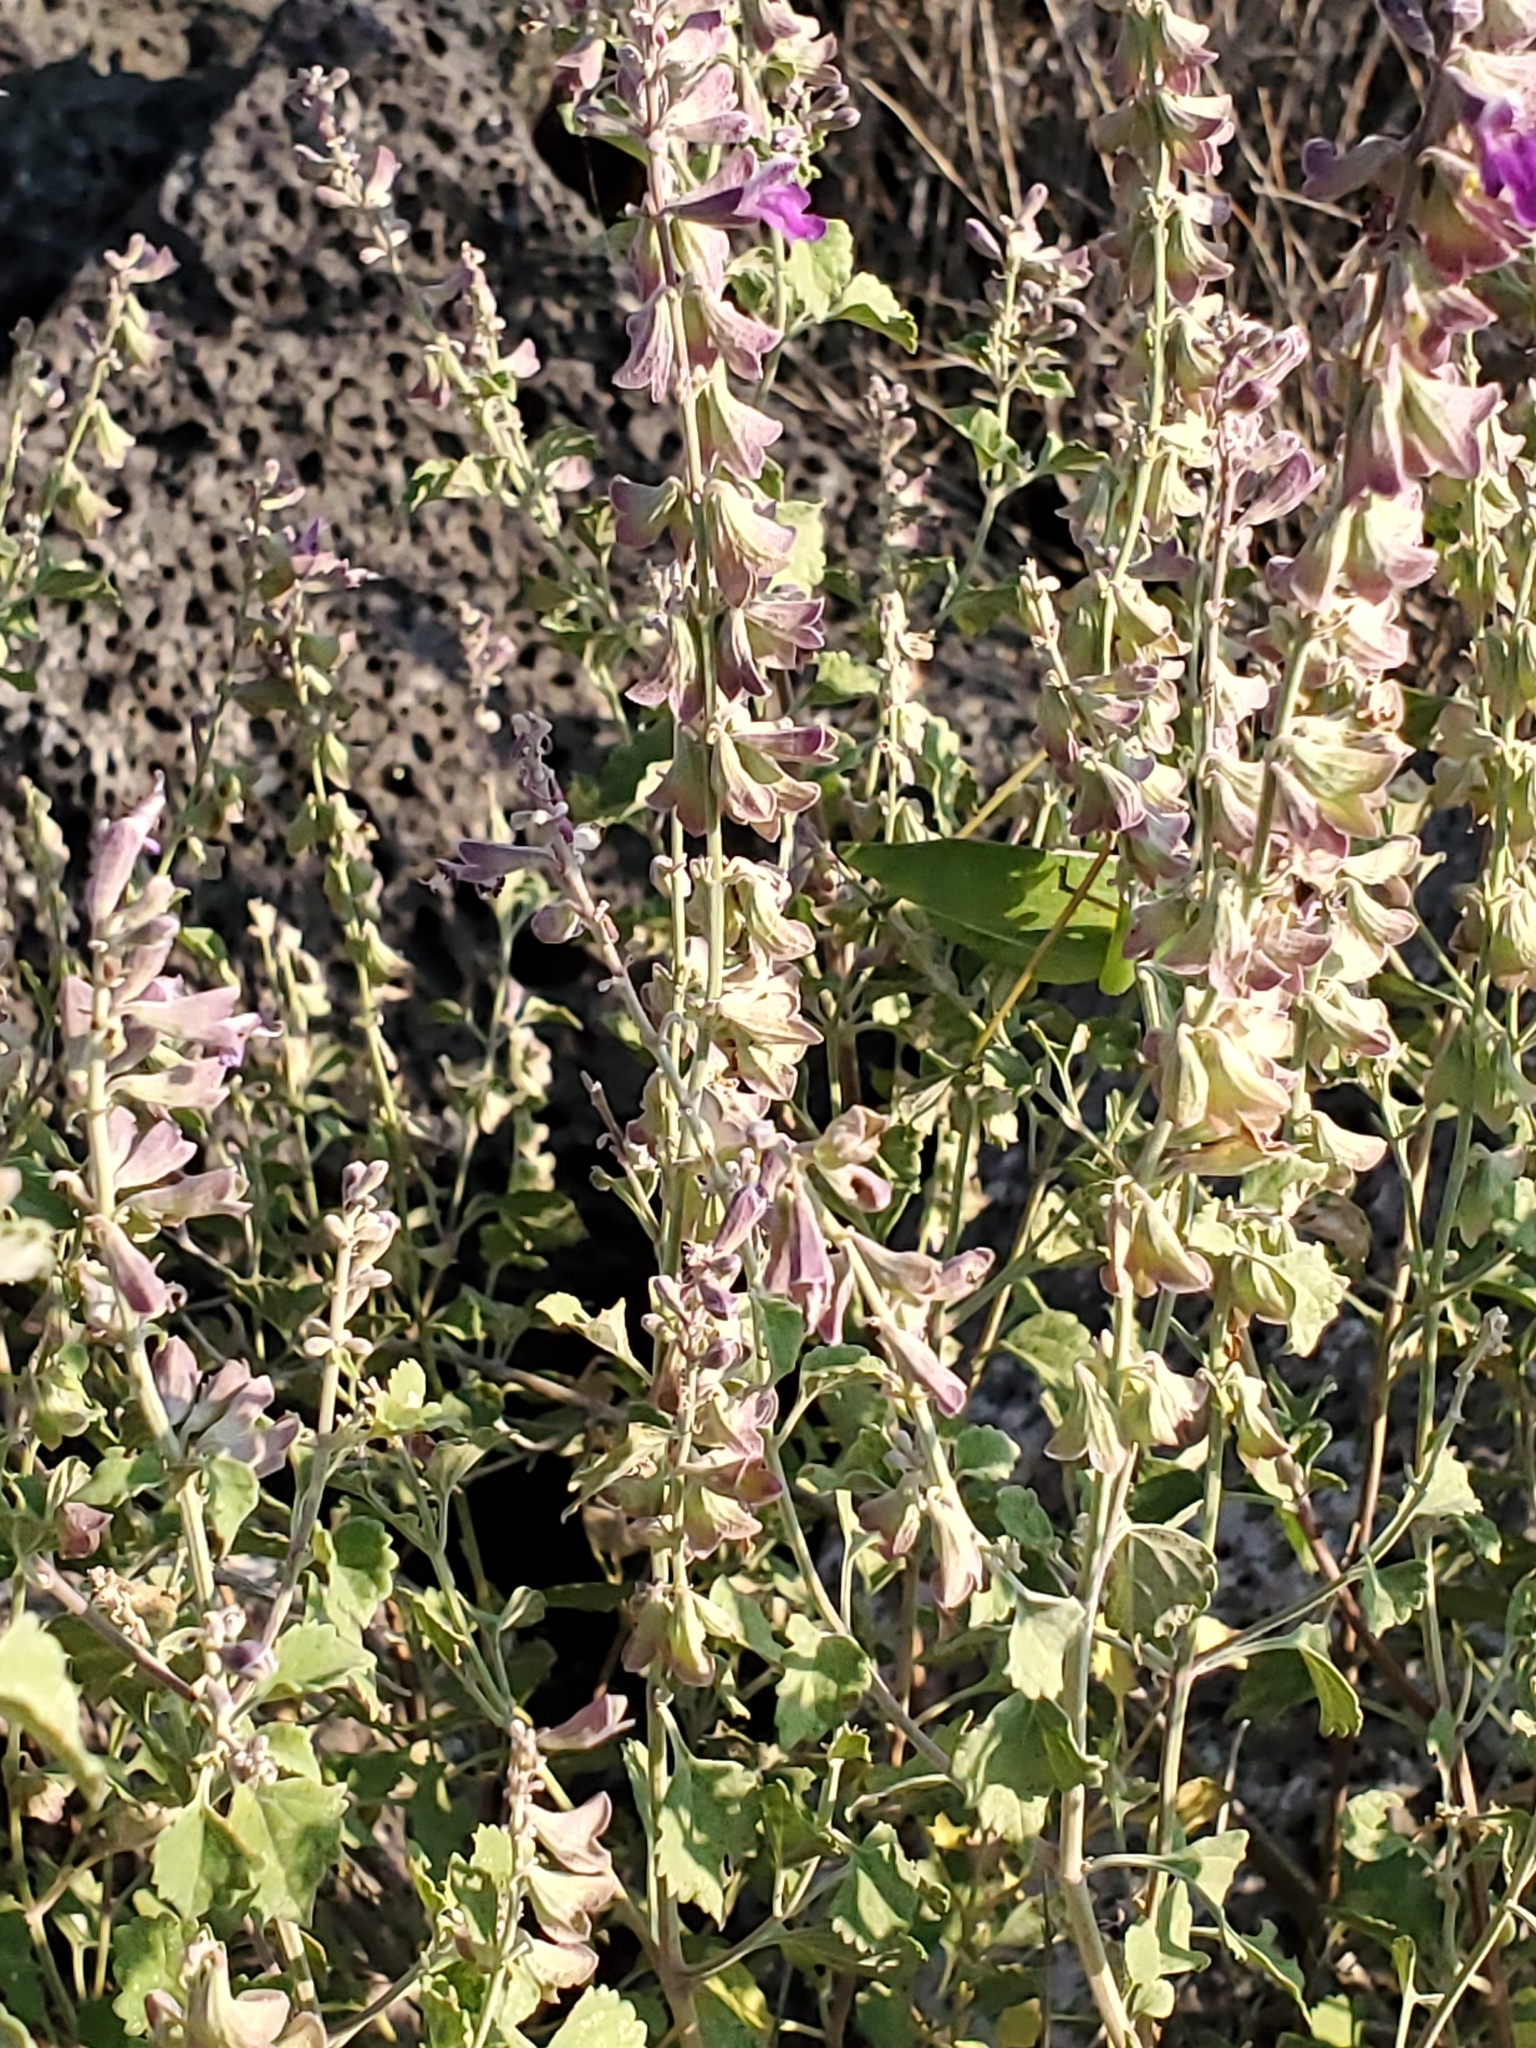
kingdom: Plantae
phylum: Tracheophyta
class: Magnoliopsida
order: Lamiales
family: Lamiaceae
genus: Salvia
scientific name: Salvia pinguifolia
